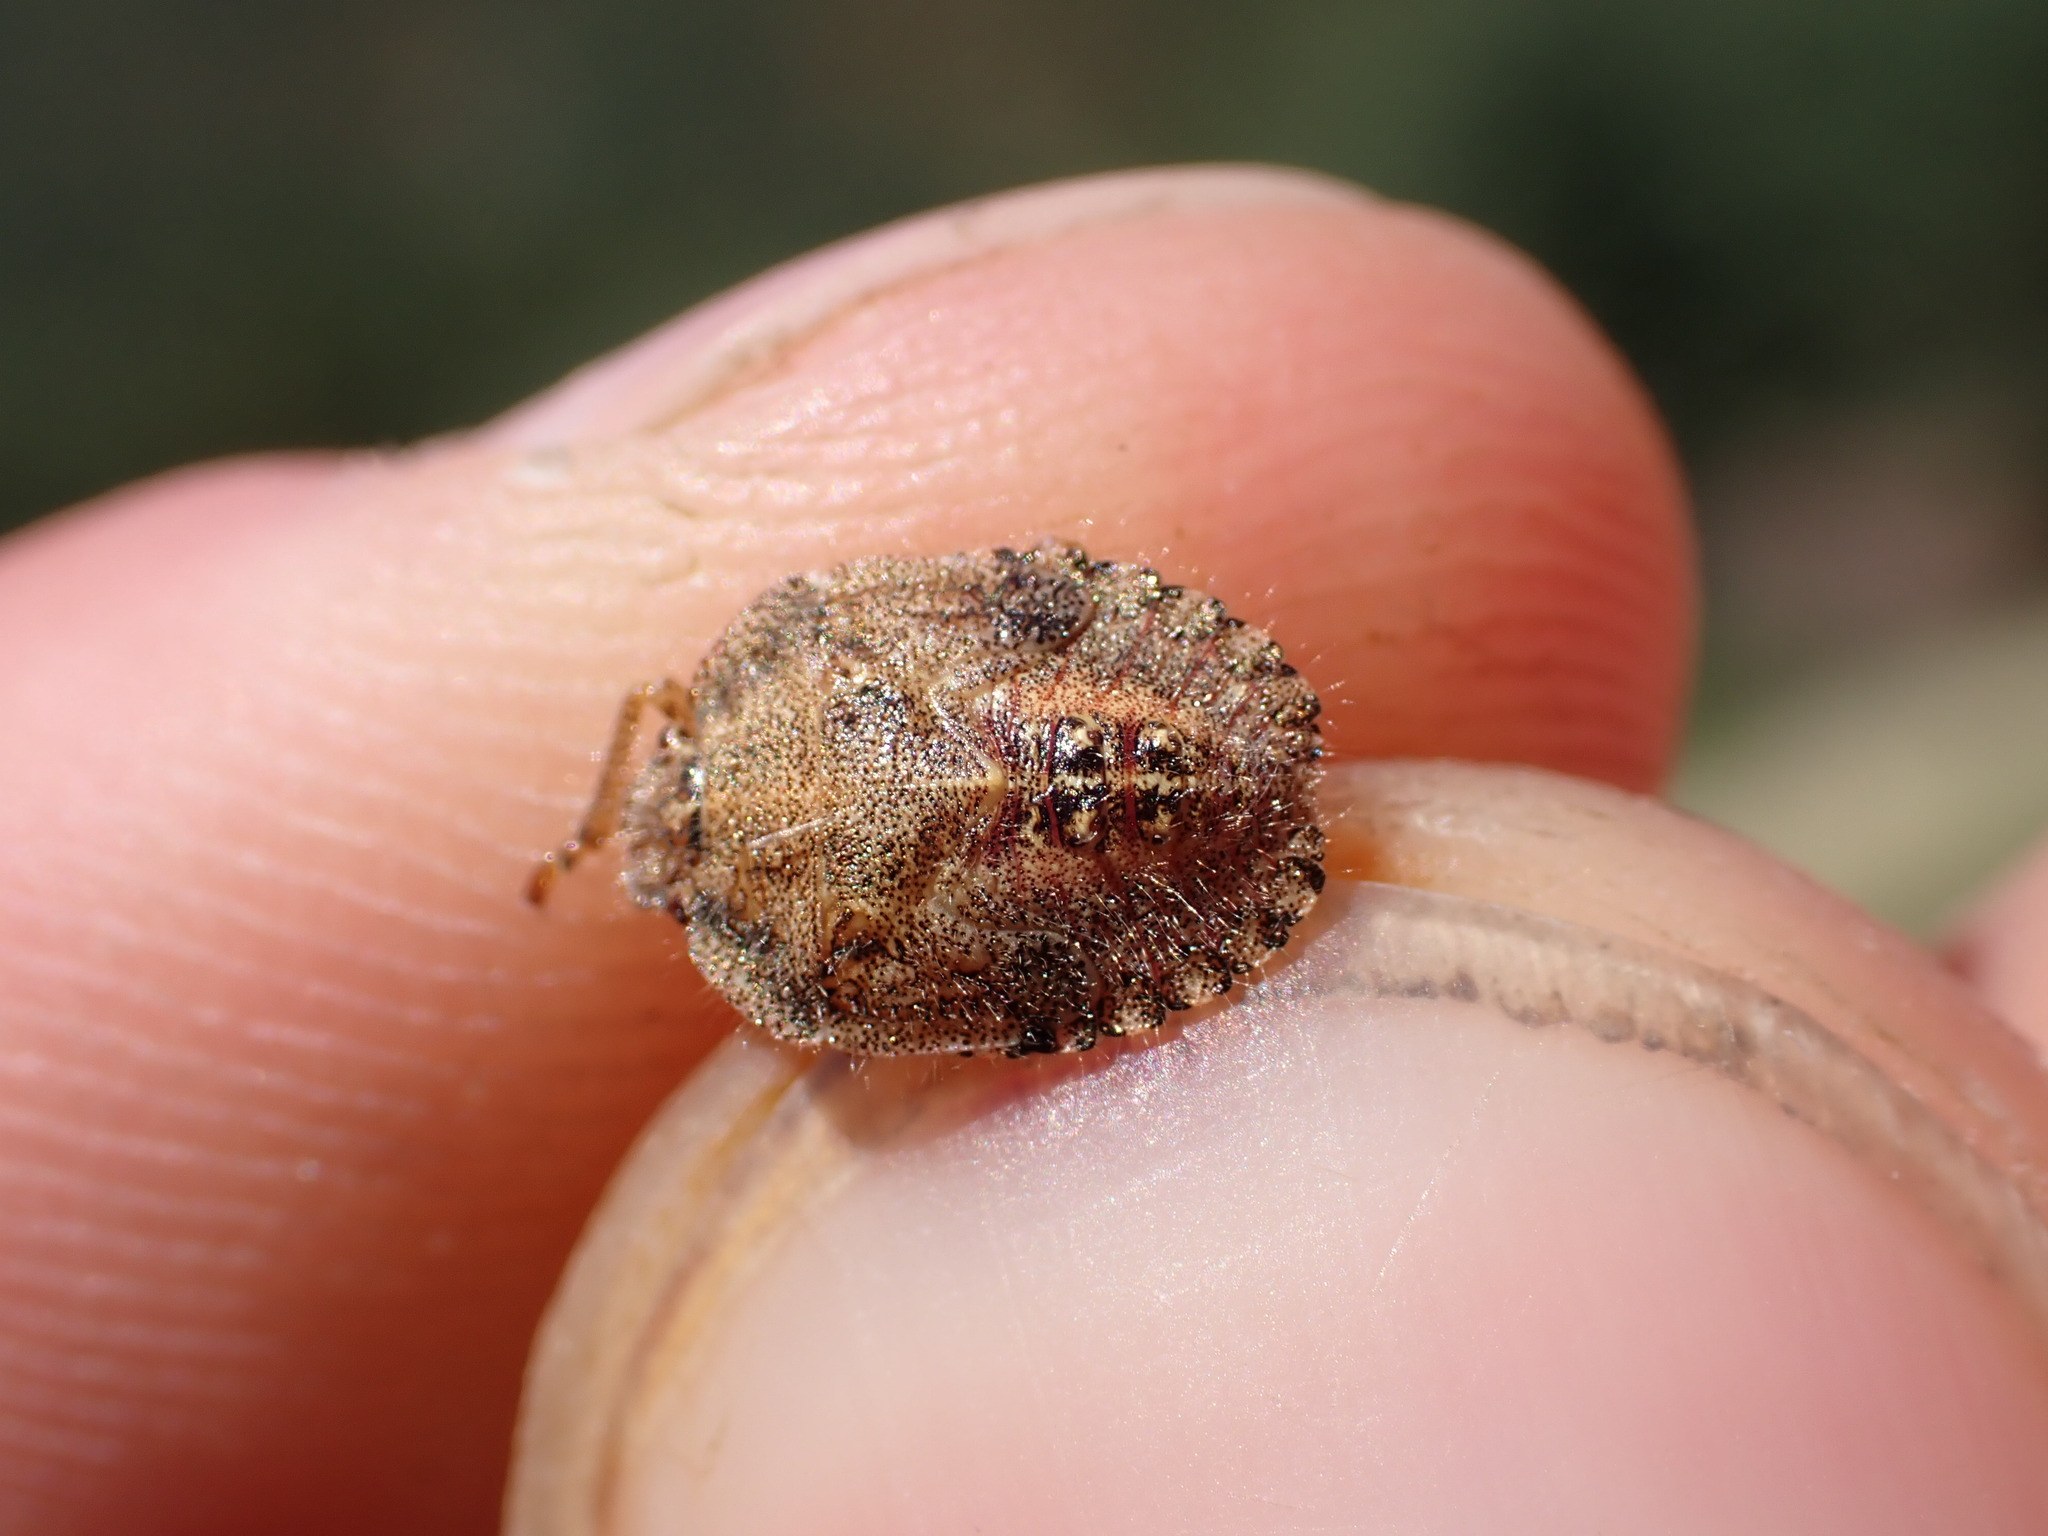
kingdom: Animalia
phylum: Arthropoda
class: Insecta
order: Hemiptera
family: Pentatomidae
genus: Dolycoris
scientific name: Dolycoris baccarum
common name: Sloe bug
